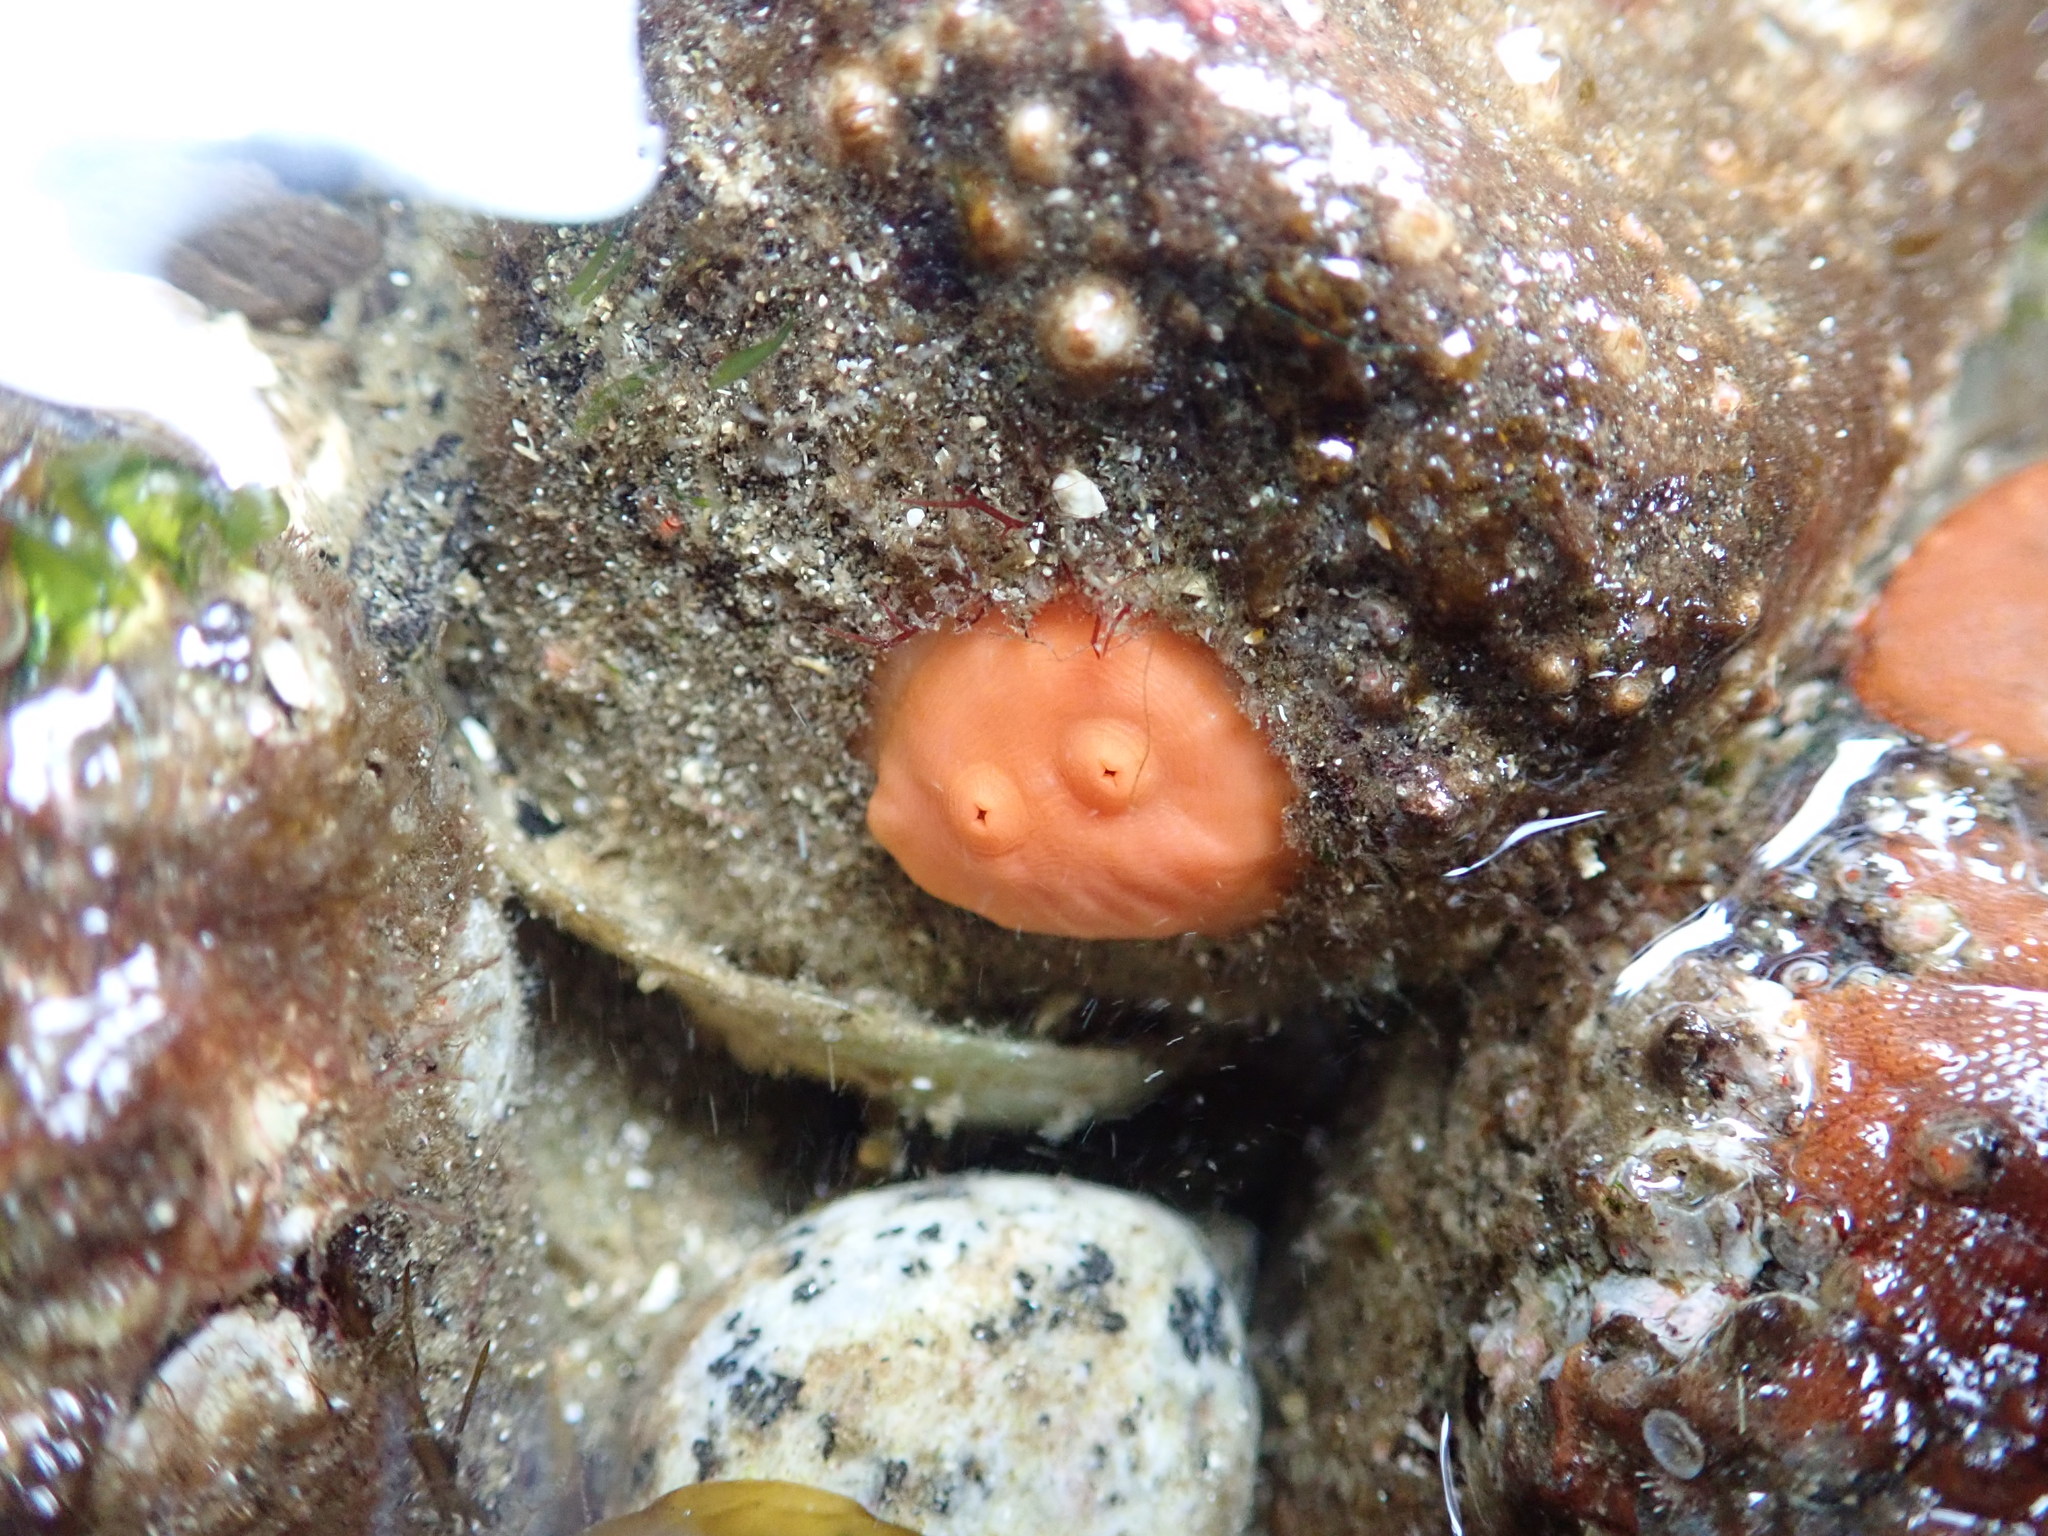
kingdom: Animalia
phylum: Chordata
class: Ascidiacea
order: Stolidobranchia
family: Styelidae
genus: Cnemidocarpa
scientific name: Cnemidocarpa finmarkiensis
